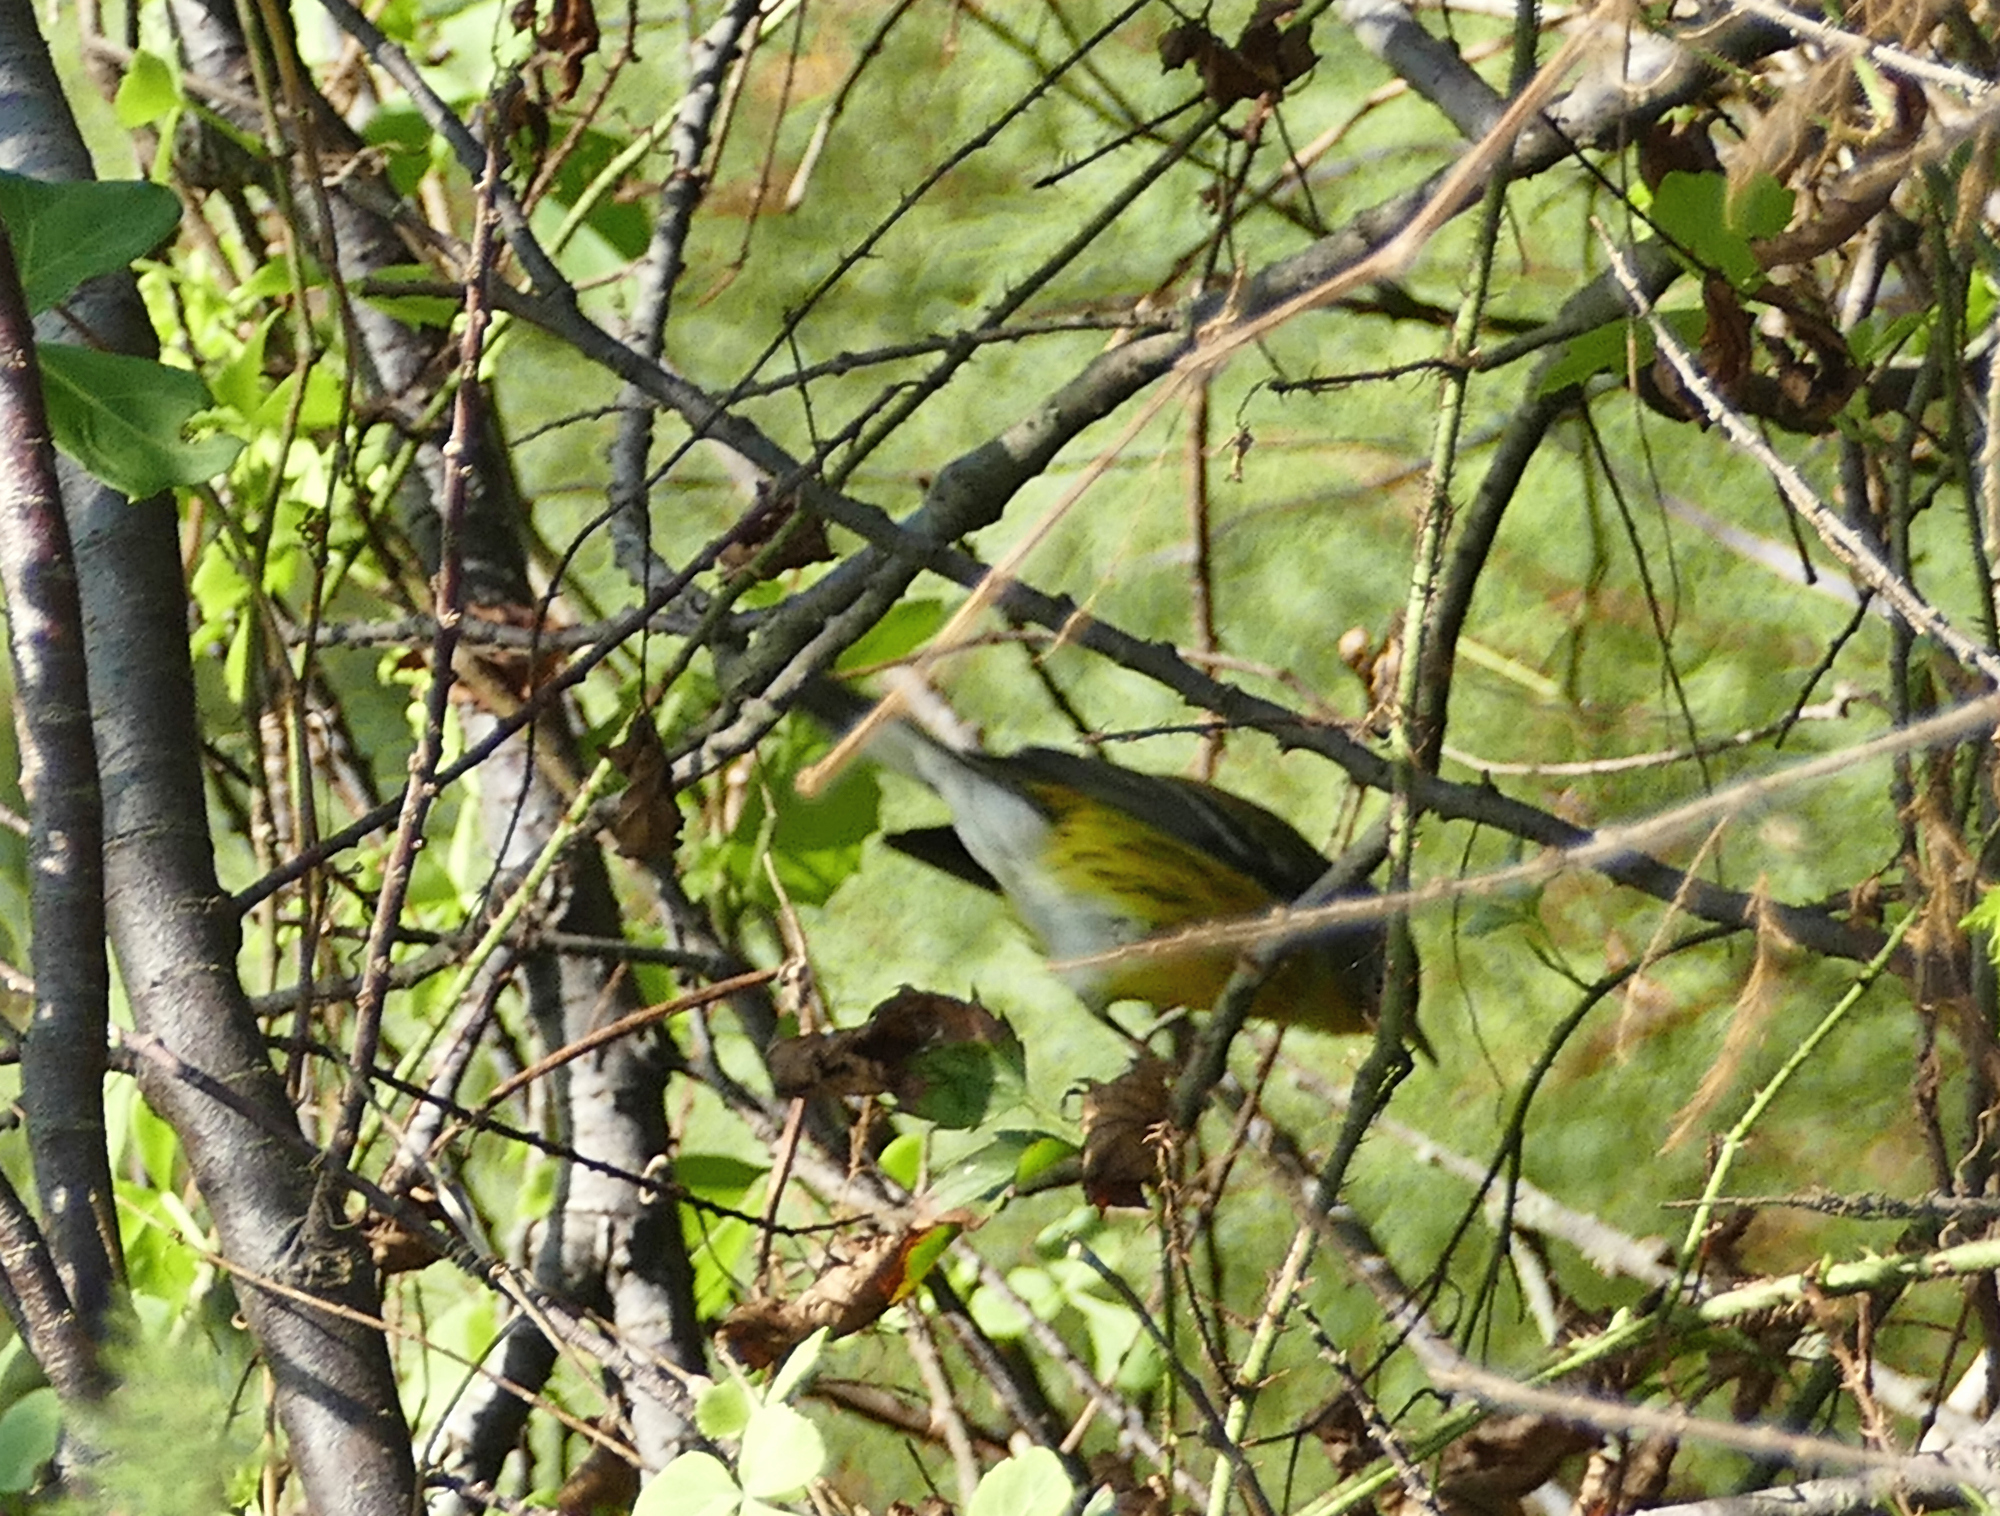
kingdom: Animalia
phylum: Chordata
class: Aves
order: Passeriformes
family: Parulidae
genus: Setophaga
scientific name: Setophaga magnolia
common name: Magnolia warbler
